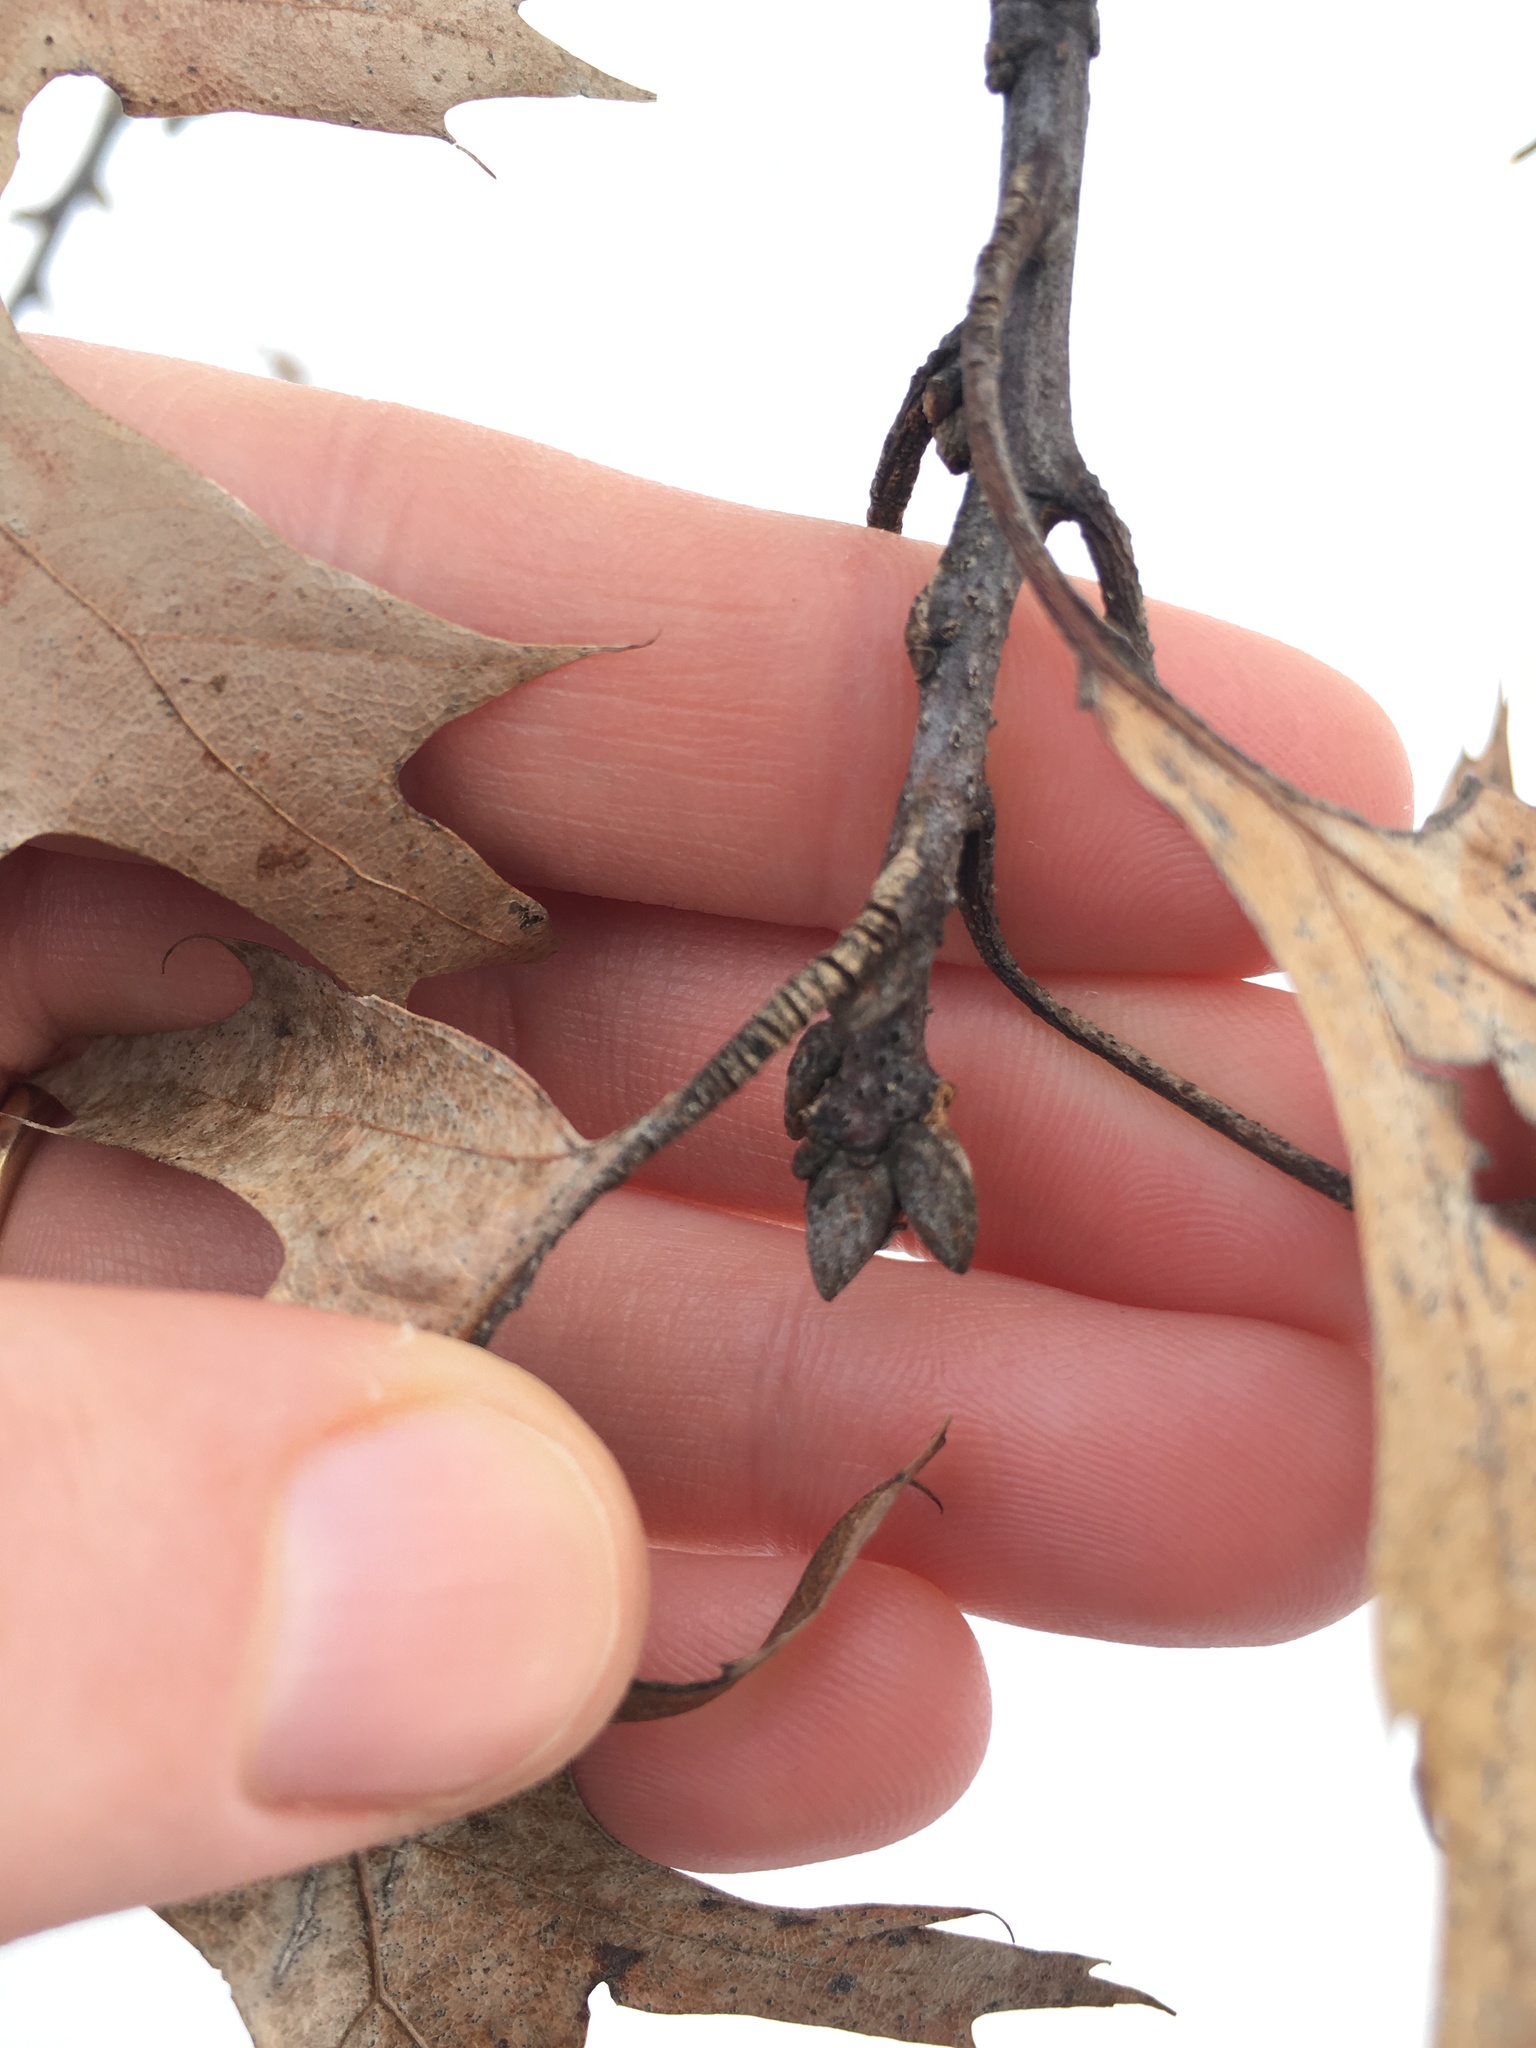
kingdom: Plantae
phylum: Tracheophyta
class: Magnoliopsida
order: Fagales
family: Fagaceae
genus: Quercus
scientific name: Quercus velutina
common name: Black oak
